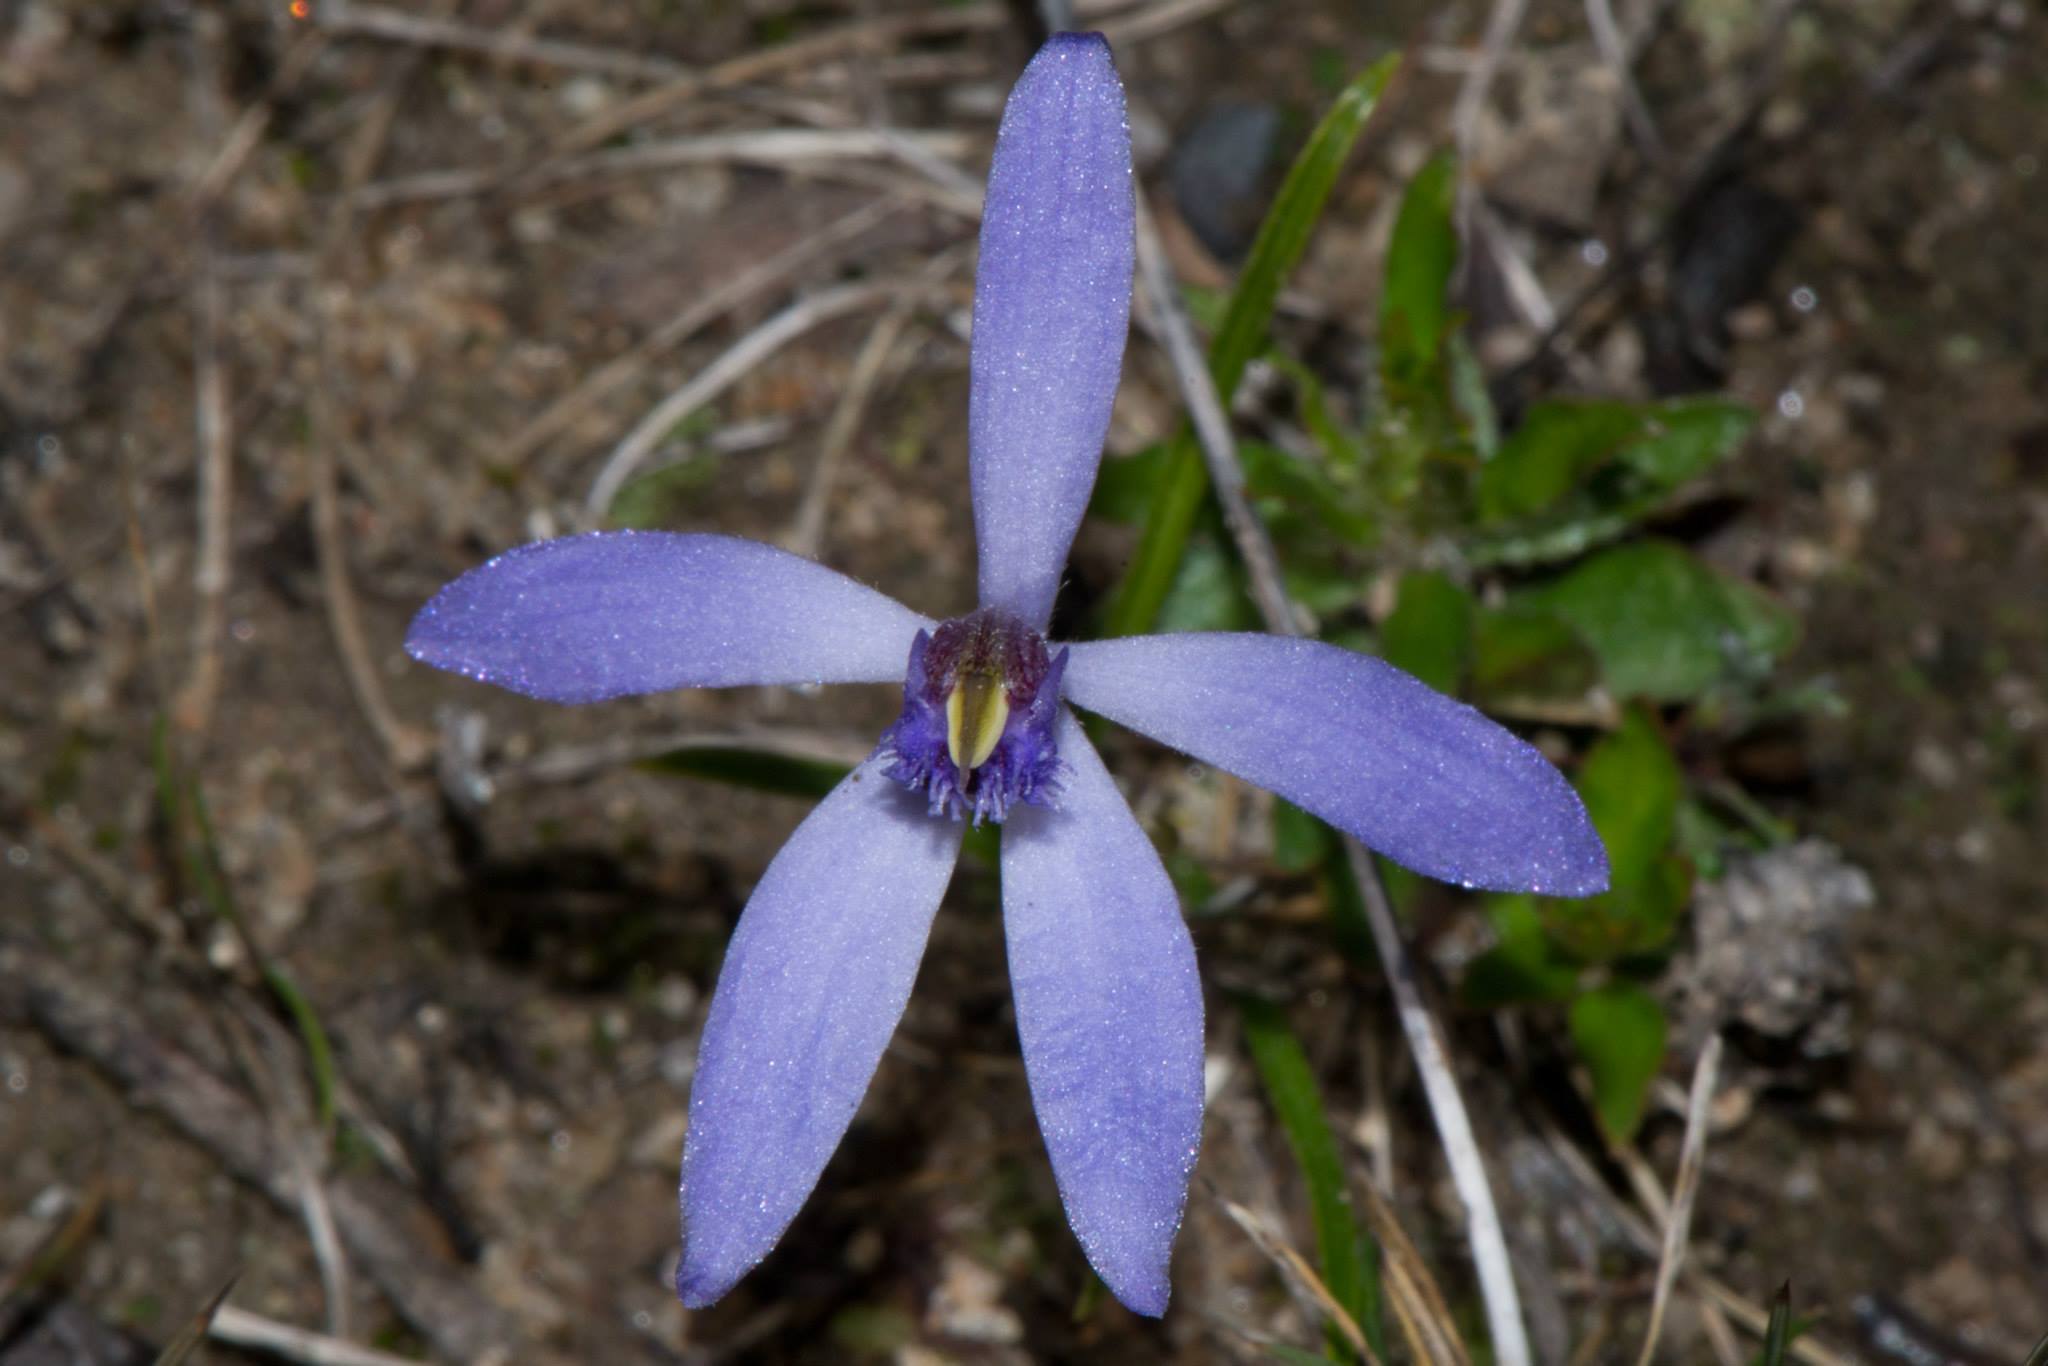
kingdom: Plantae
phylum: Tracheophyta
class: Liliopsida
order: Asparagales
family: Orchidaceae
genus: Pheladenia
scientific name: Pheladenia deformis
